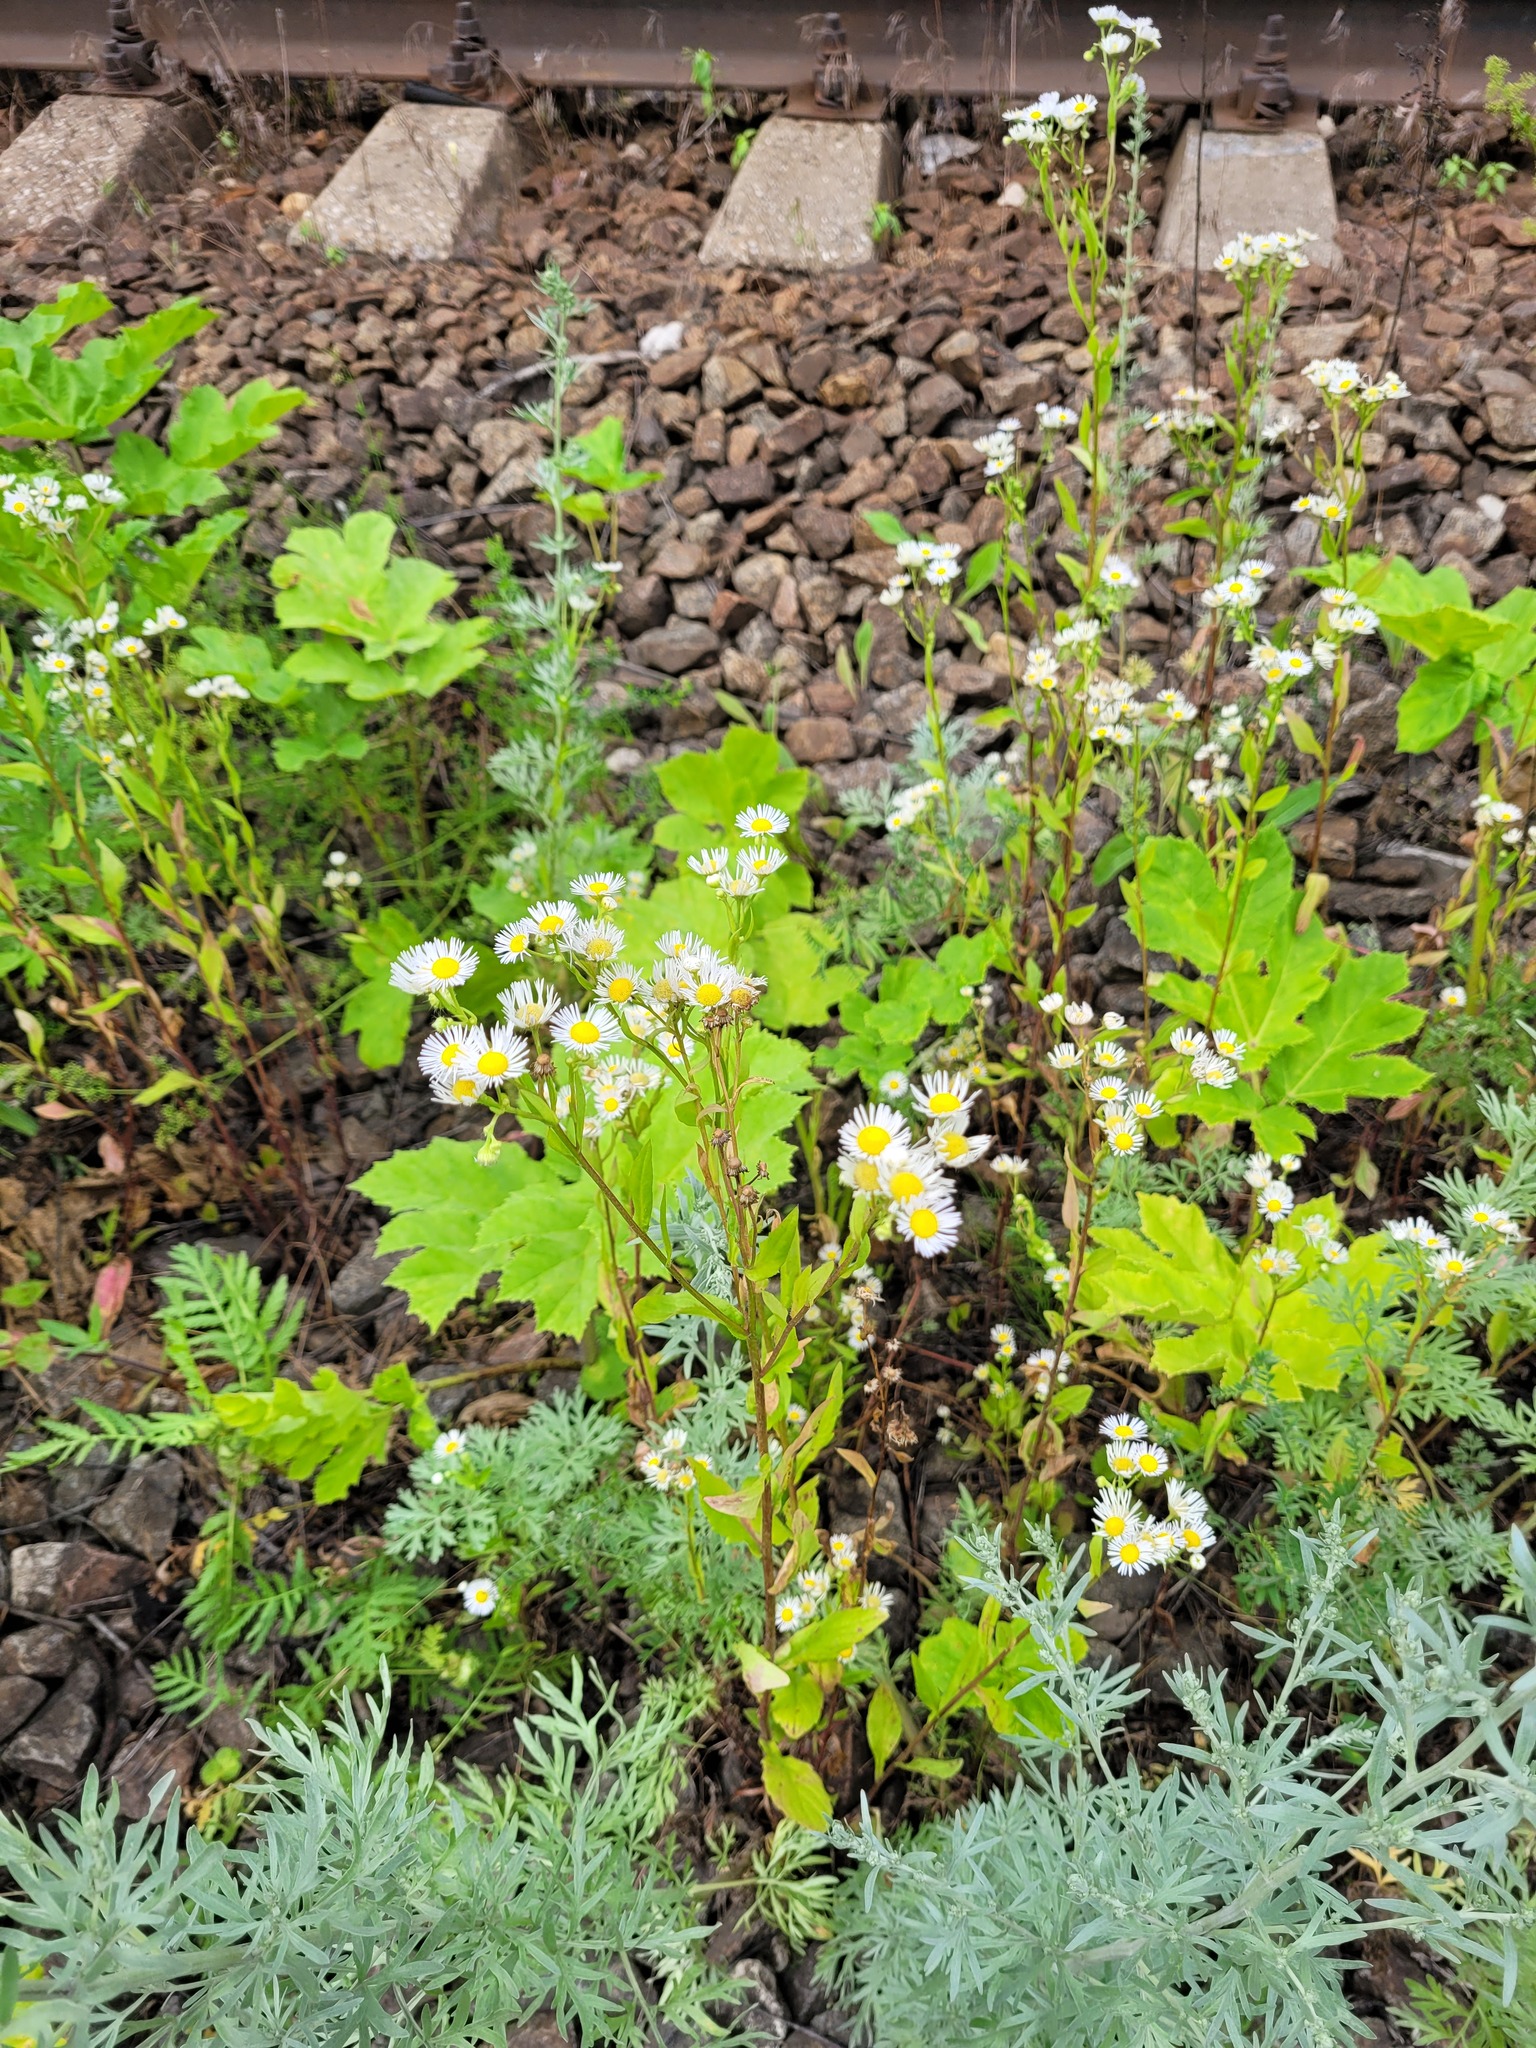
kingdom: Plantae
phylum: Tracheophyta
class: Magnoliopsida
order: Asterales
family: Asteraceae
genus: Erigeron
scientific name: Erigeron annuus
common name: Tall fleabane
